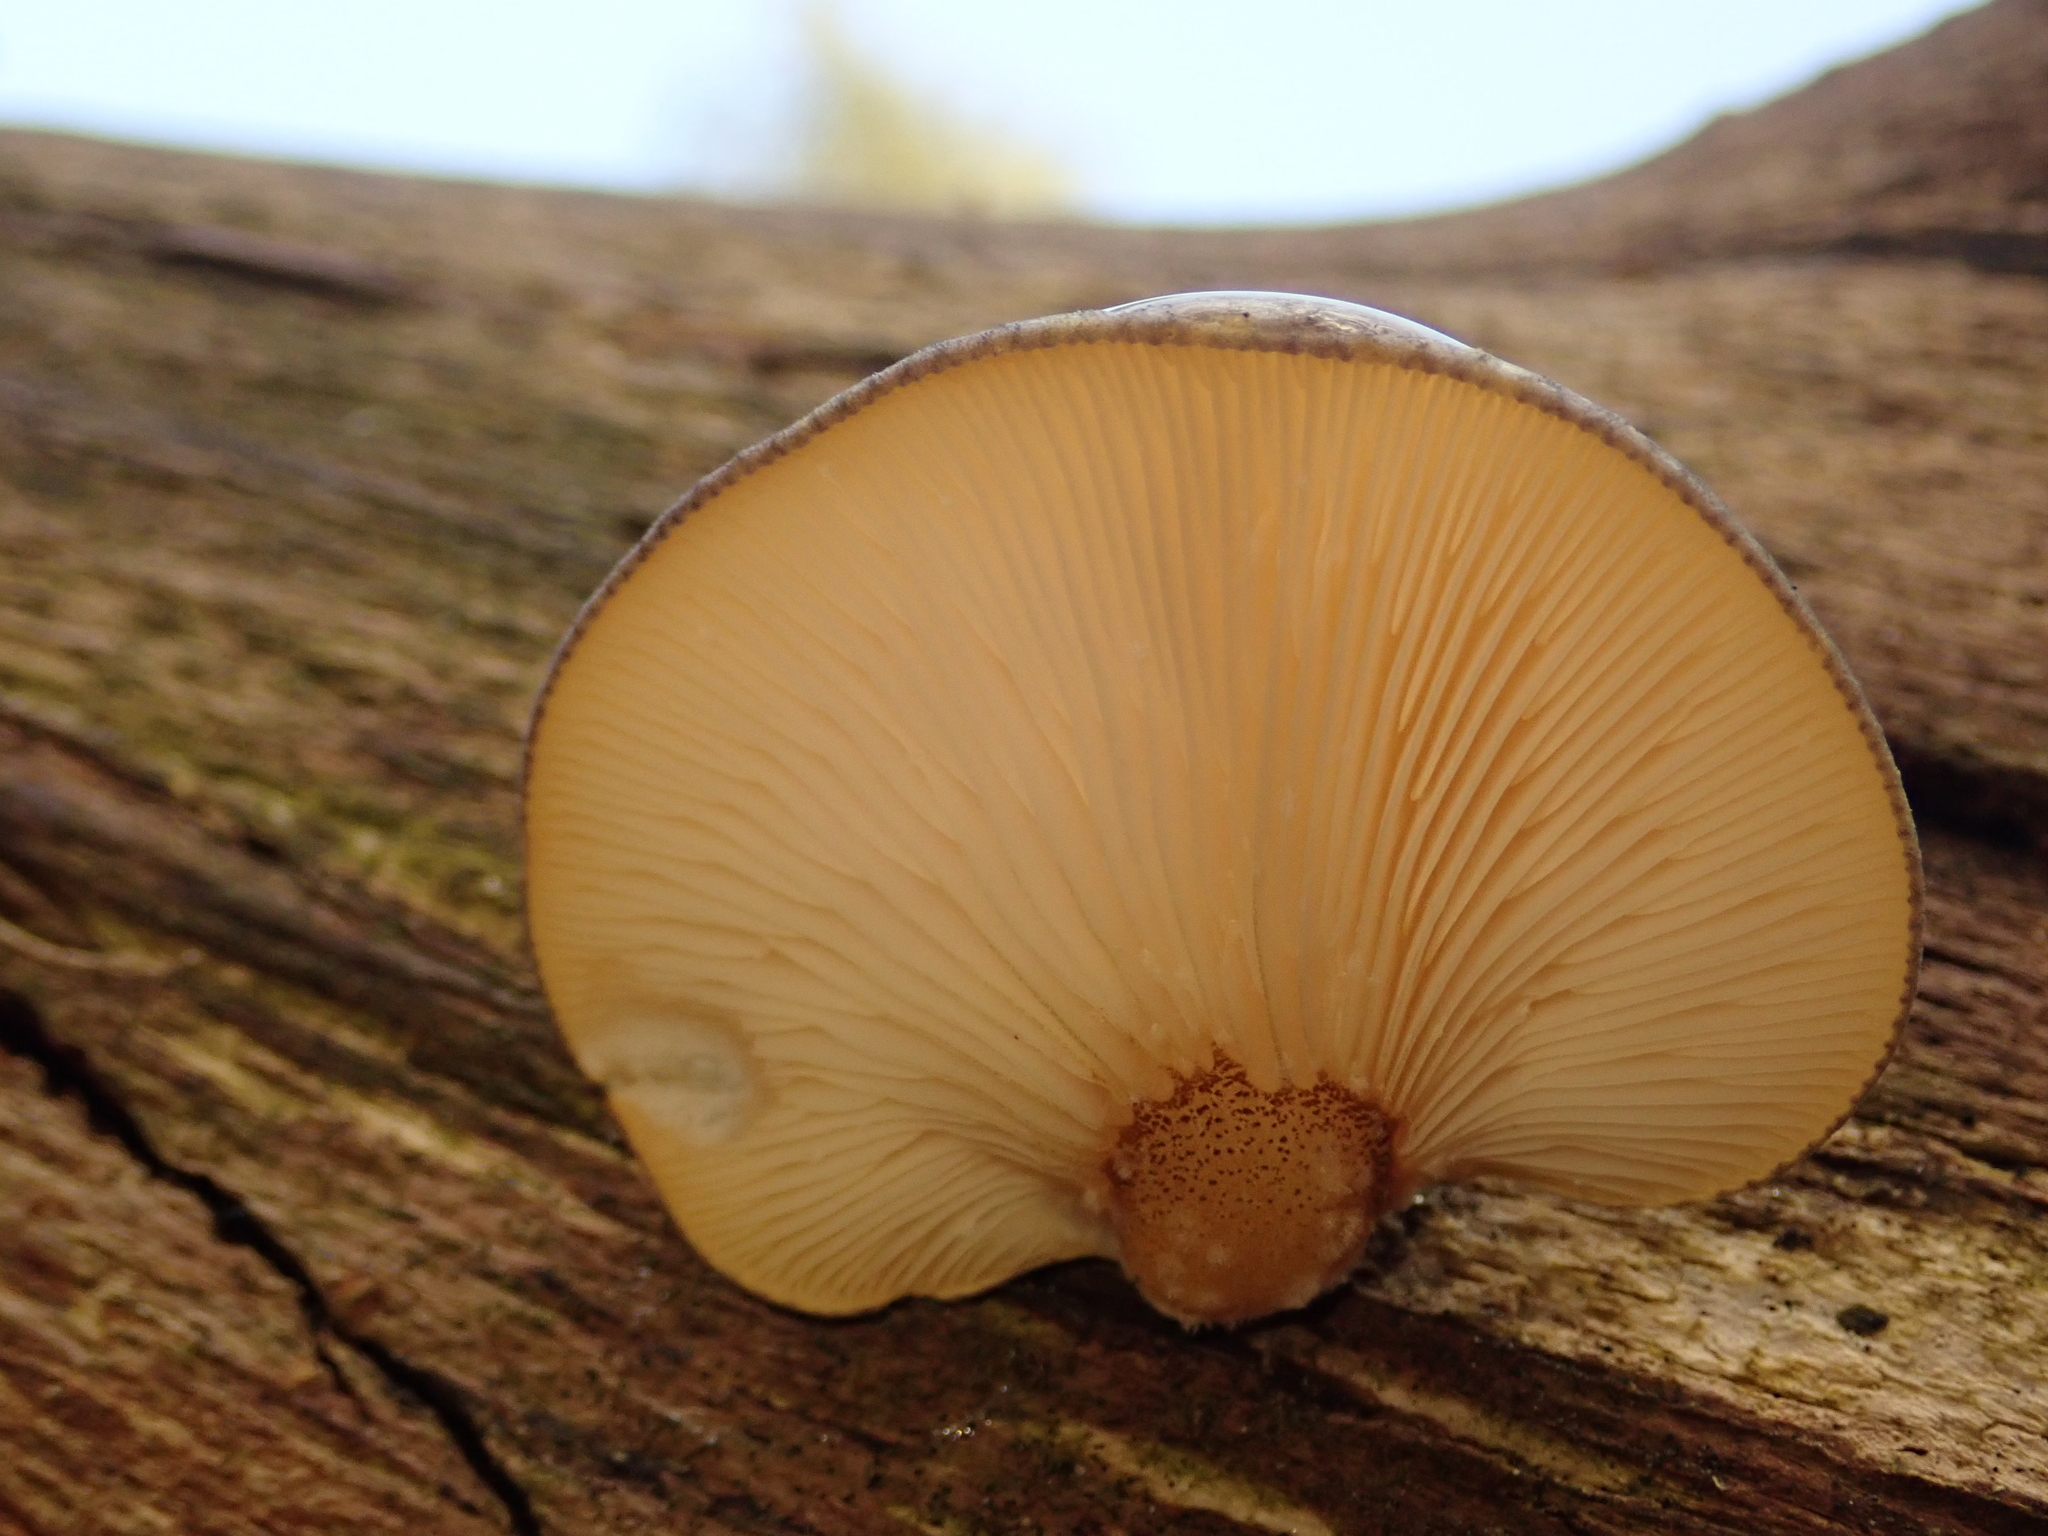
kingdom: Fungi
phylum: Basidiomycota
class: Agaricomycetes
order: Agaricales
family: Sarcomyxaceae
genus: Sarcomyxa
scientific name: Sarcomyxa serotina
